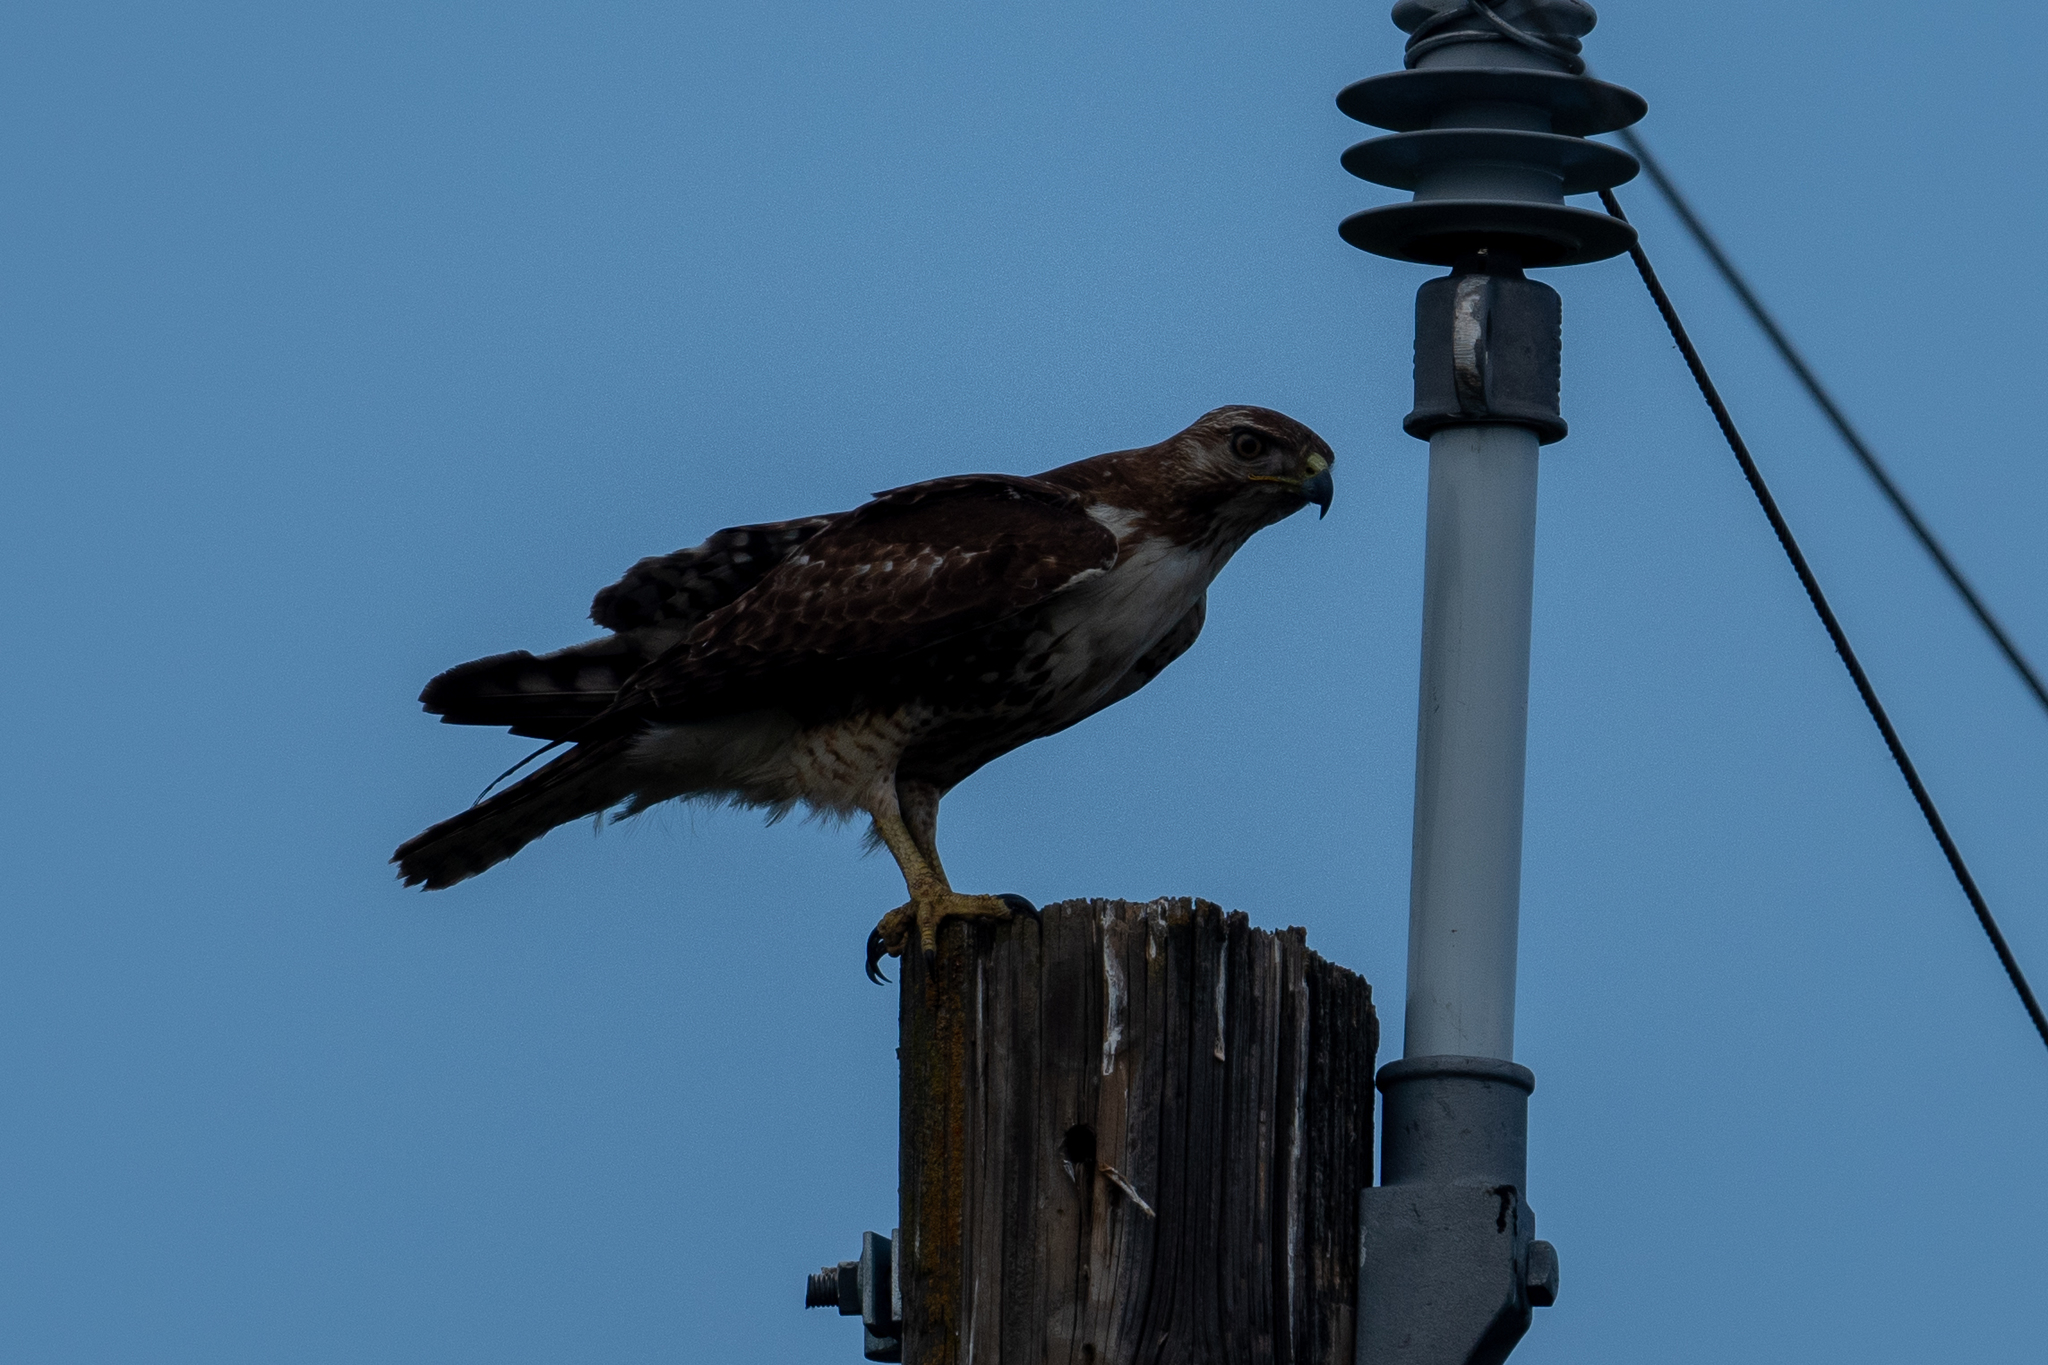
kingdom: Animalia
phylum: Chordata
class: Aves
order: Accipitriformes
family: Accipitridae
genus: Buteo
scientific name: Buteo jamaicensis
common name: Red-tailed hawk
